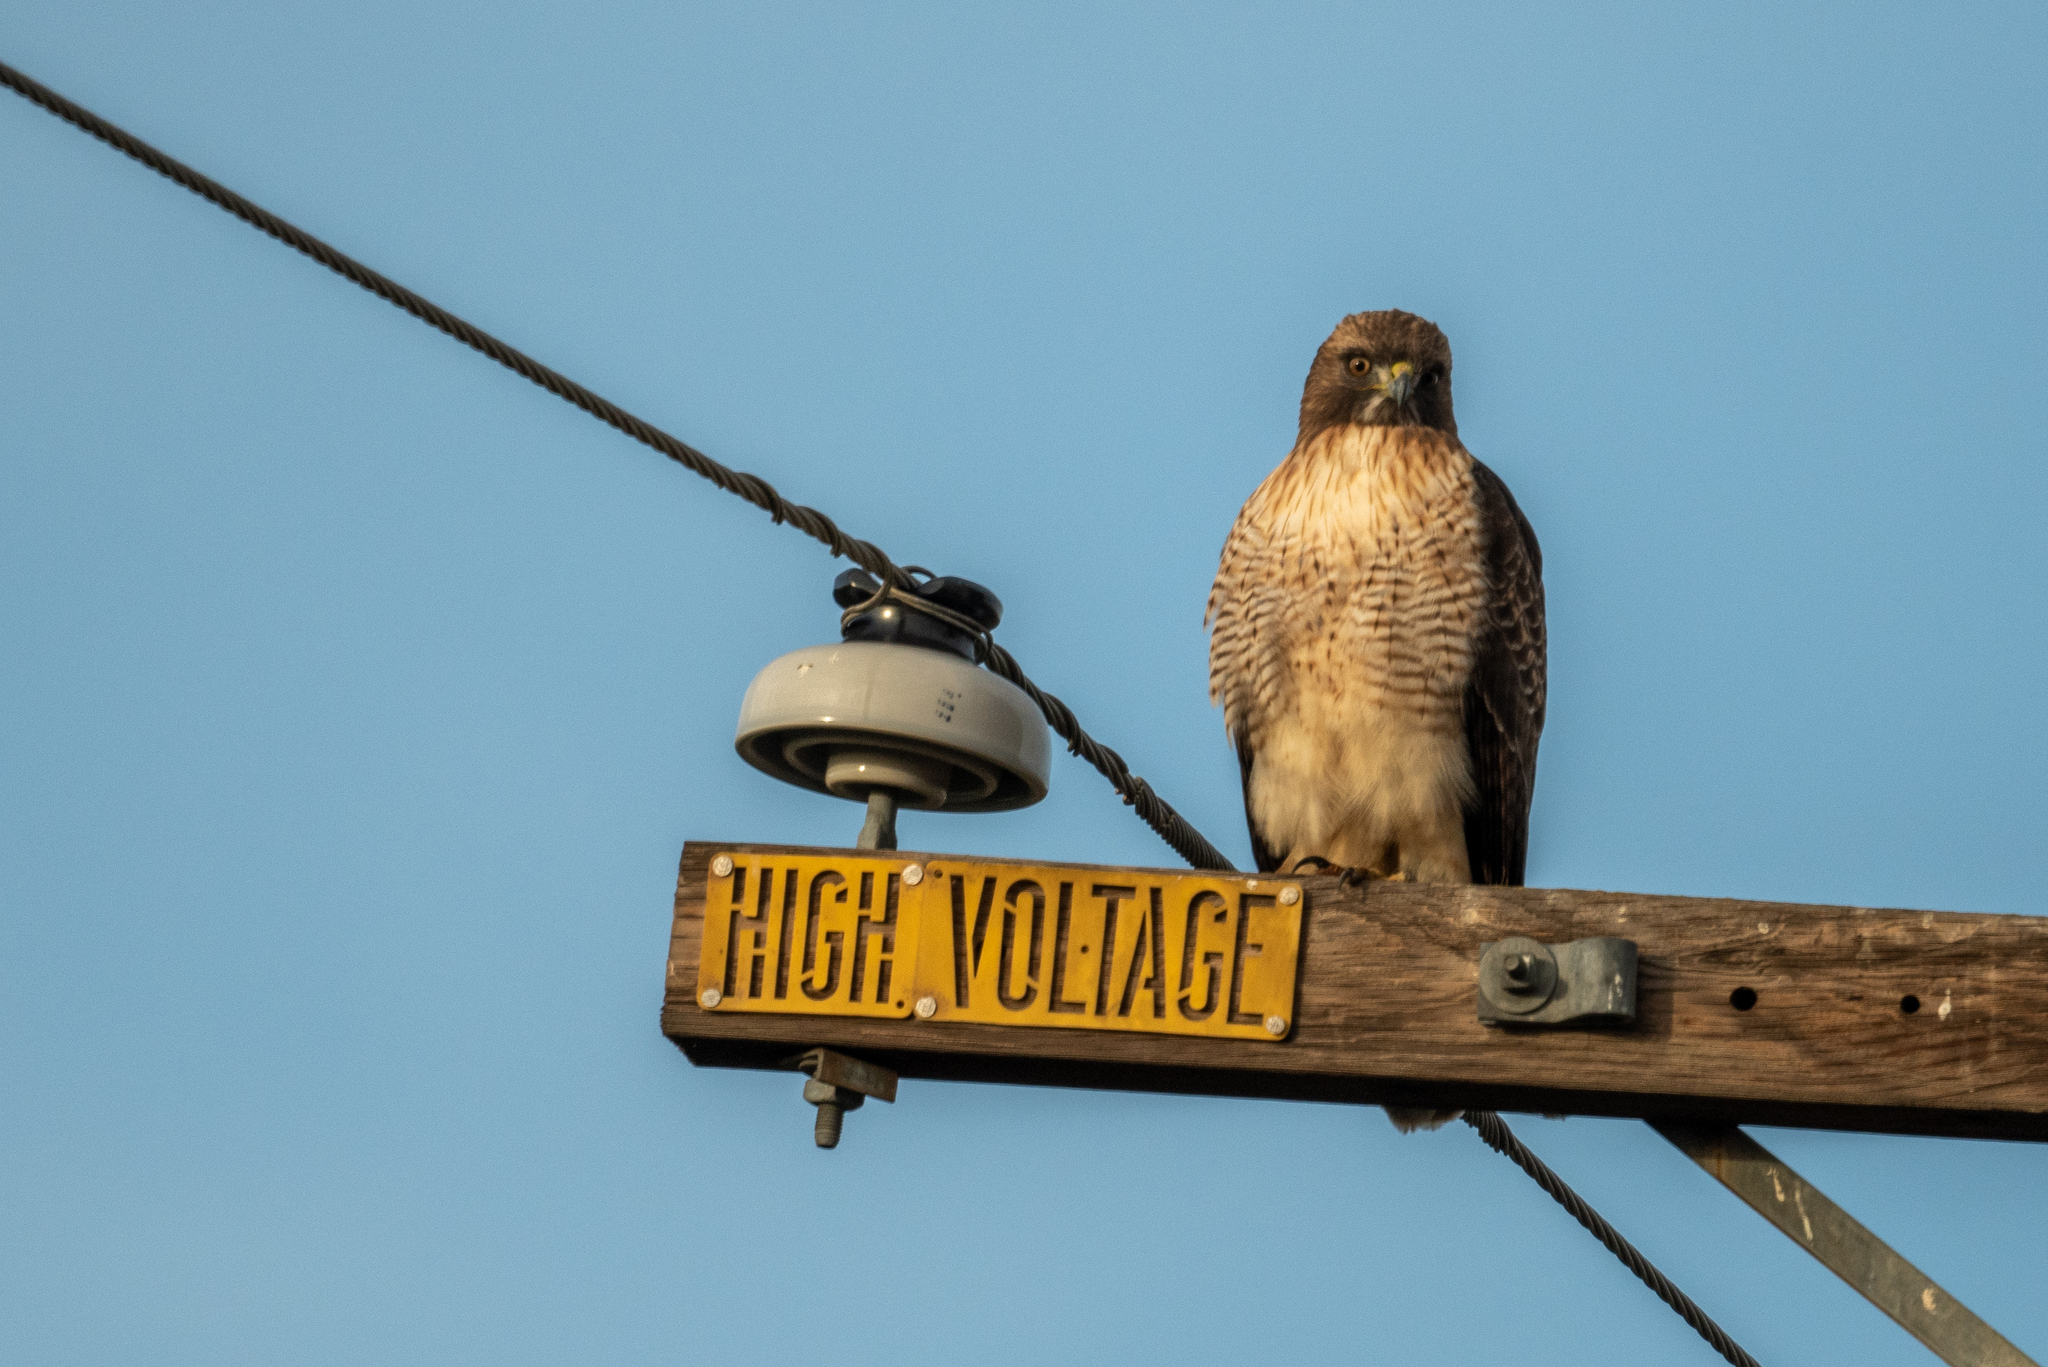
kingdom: Animalia
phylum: Chordata
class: Aves
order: Accipitriformes
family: Accipitridae
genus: Buteo
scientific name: Buteo jamaicensis
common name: Red-tailed hawk
